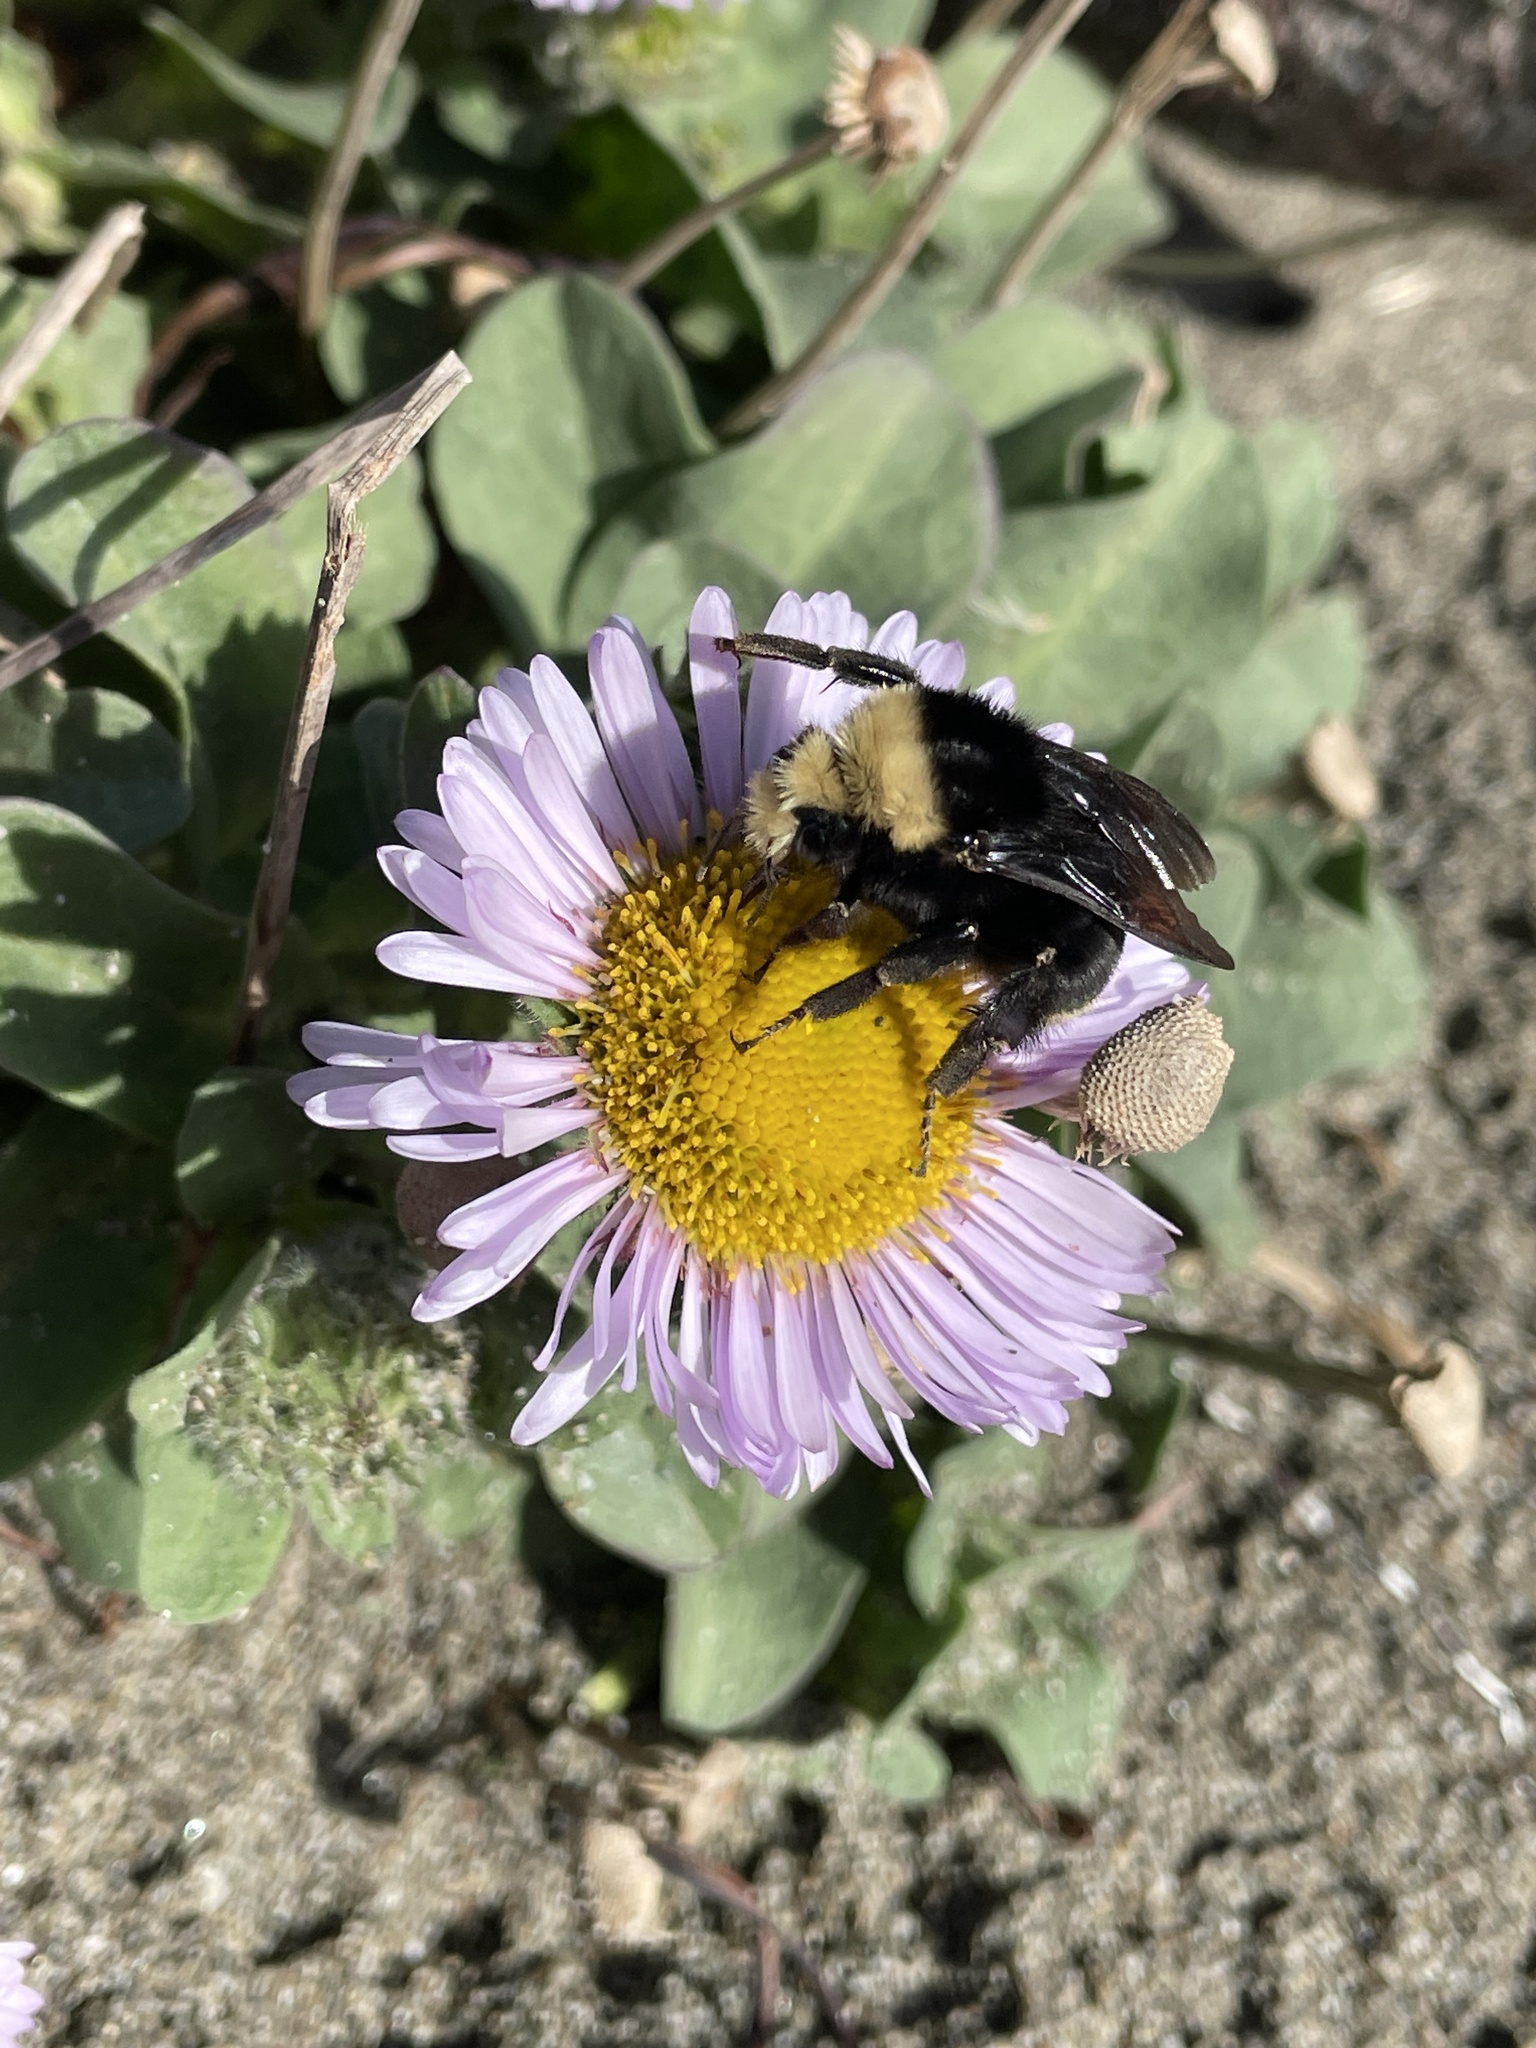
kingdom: Animalia
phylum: Arthropoda
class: Insecta
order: Hymenoptera
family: Apidae
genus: Bombus
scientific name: Bombus vosnesenskii
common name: Vosnesensky bumble bee
